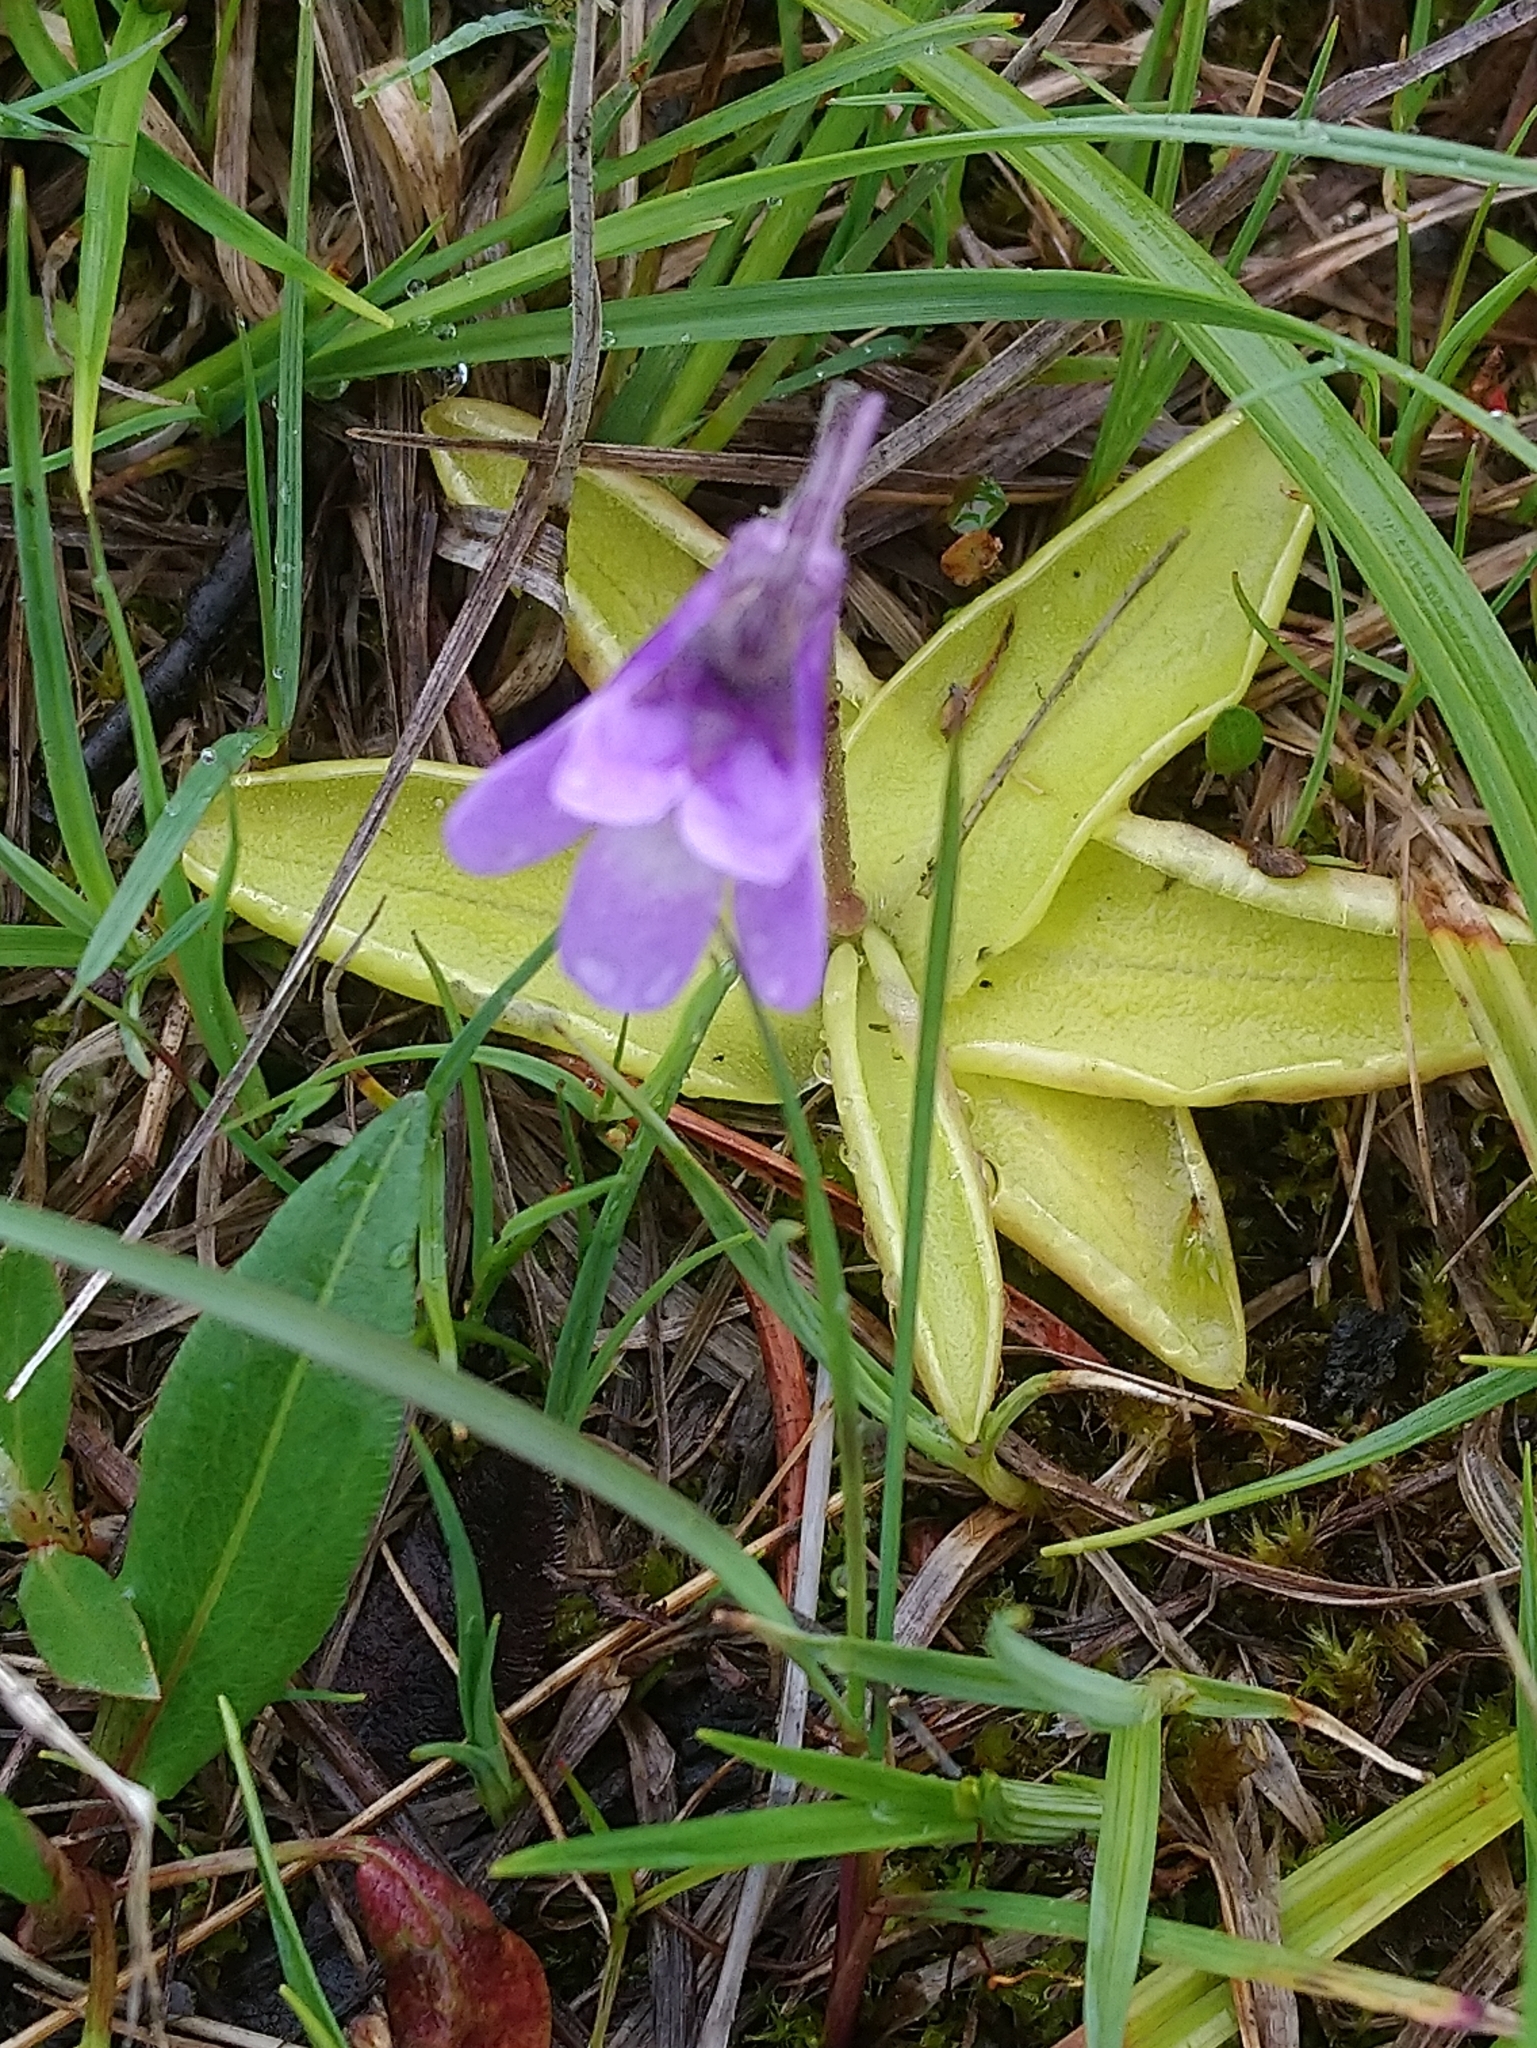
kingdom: Plantae
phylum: Tracheophyta
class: Magnoliopsida
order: Lamiales
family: Lentibulariaceae
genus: Pinguicula
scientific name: Pinguicula vulgaris
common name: Common butterwort
